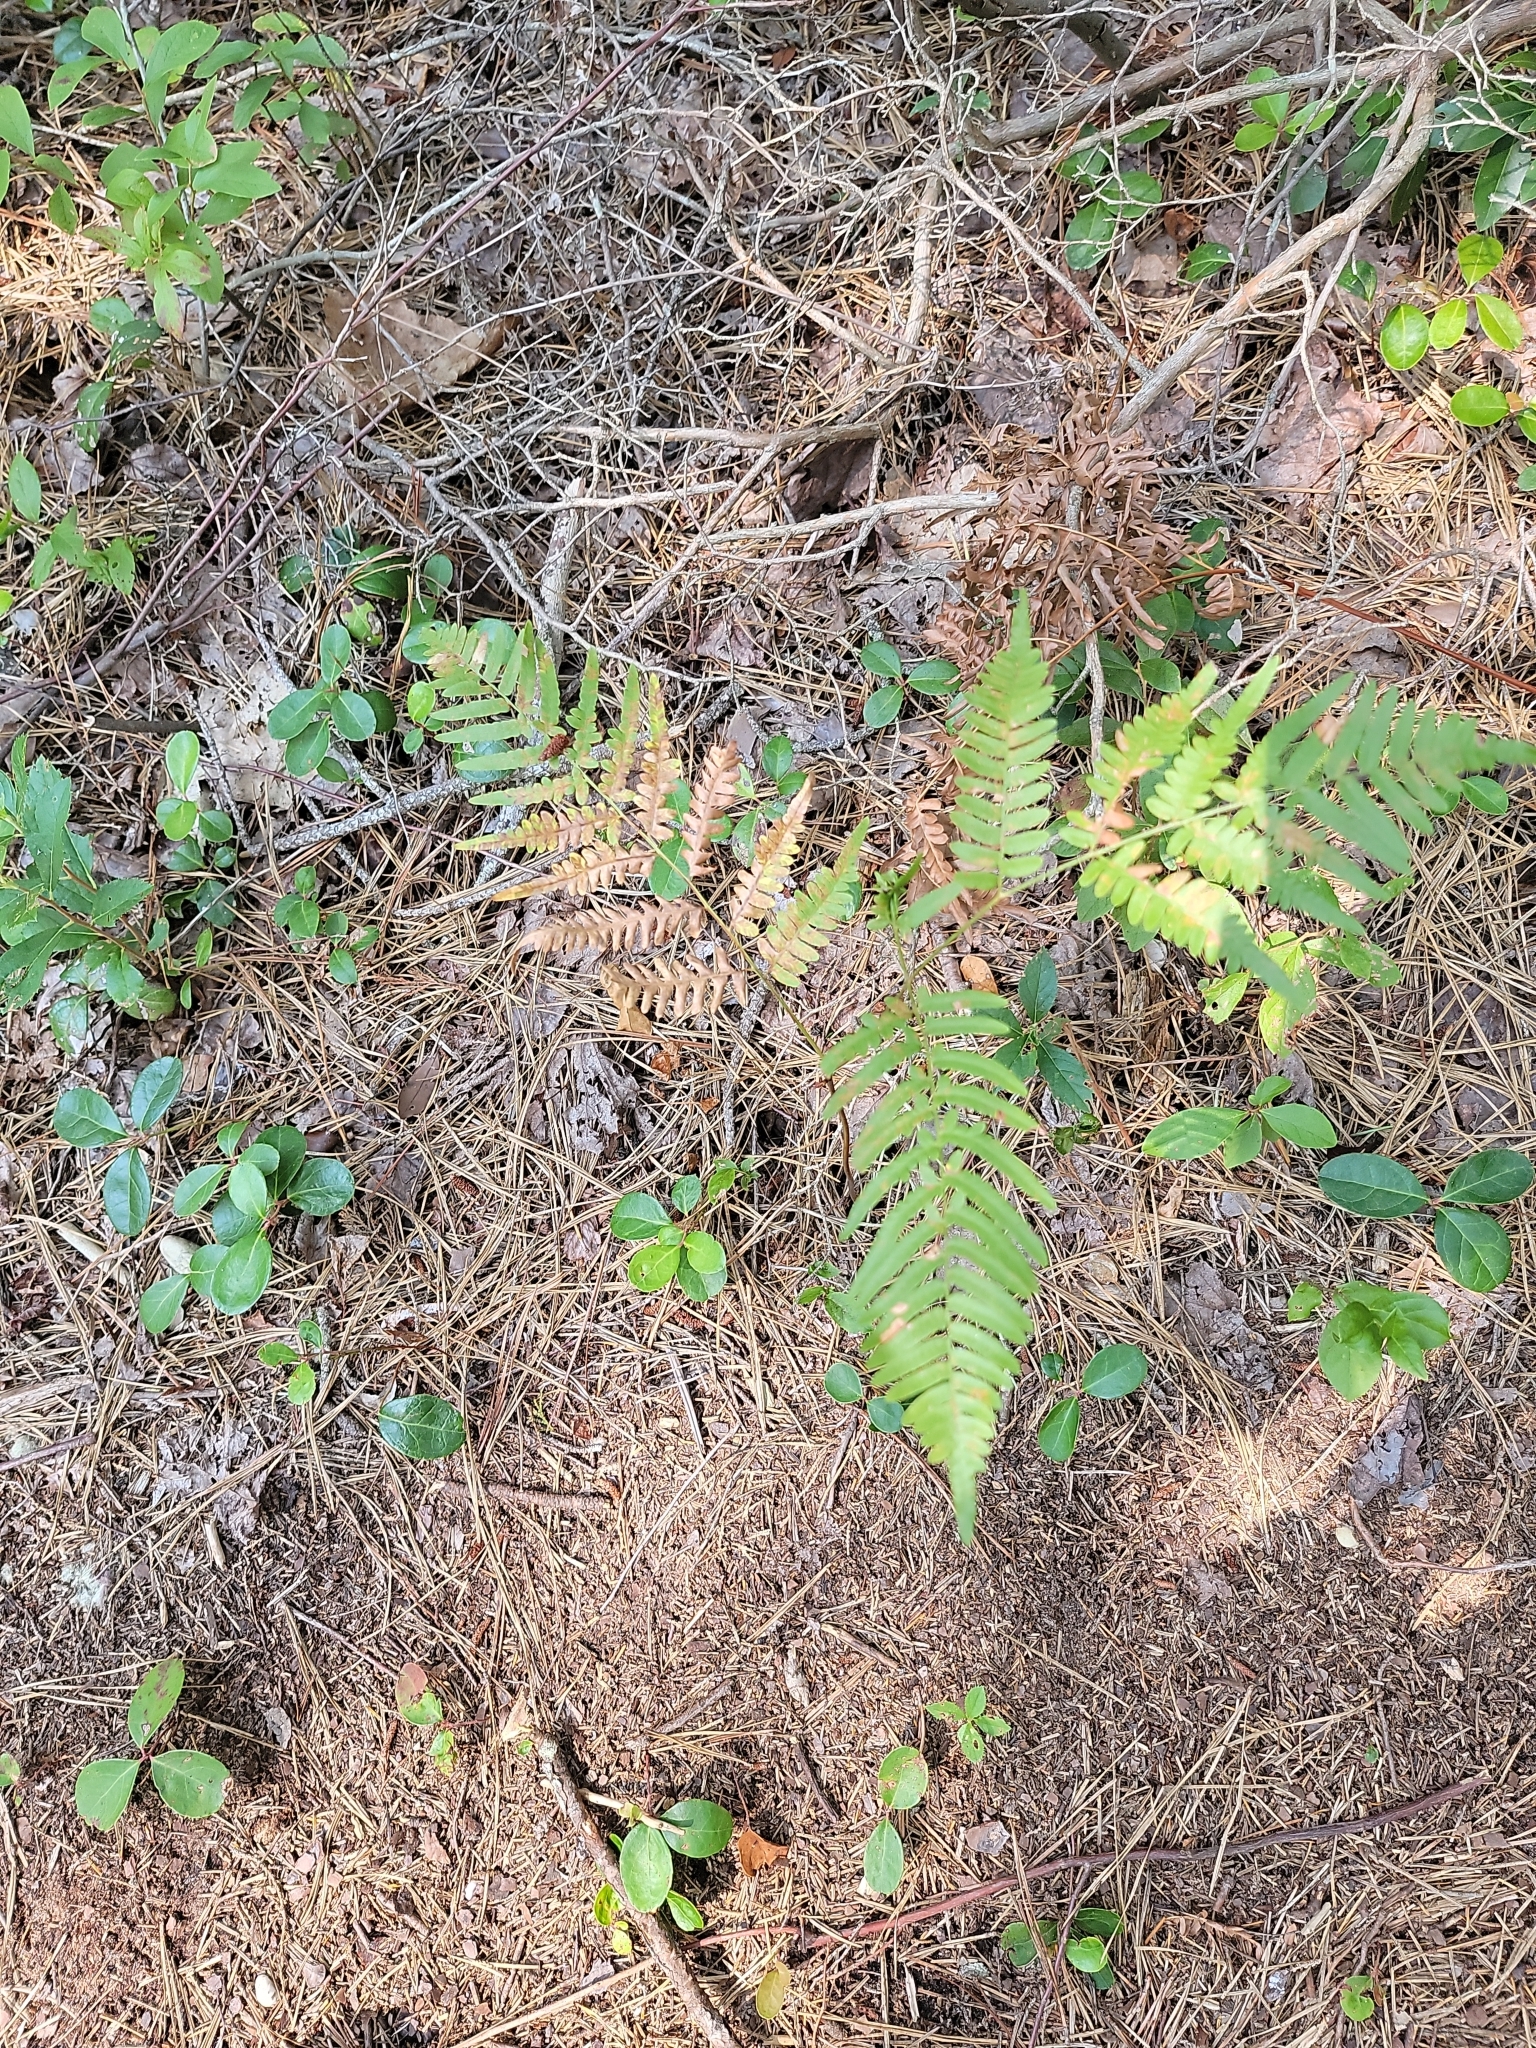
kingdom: Plantae
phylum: Tracheophyta
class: Polypodiopsida
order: Polypodiales
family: Dennstaedtiaceae
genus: Pteridium
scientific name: Pteridium
